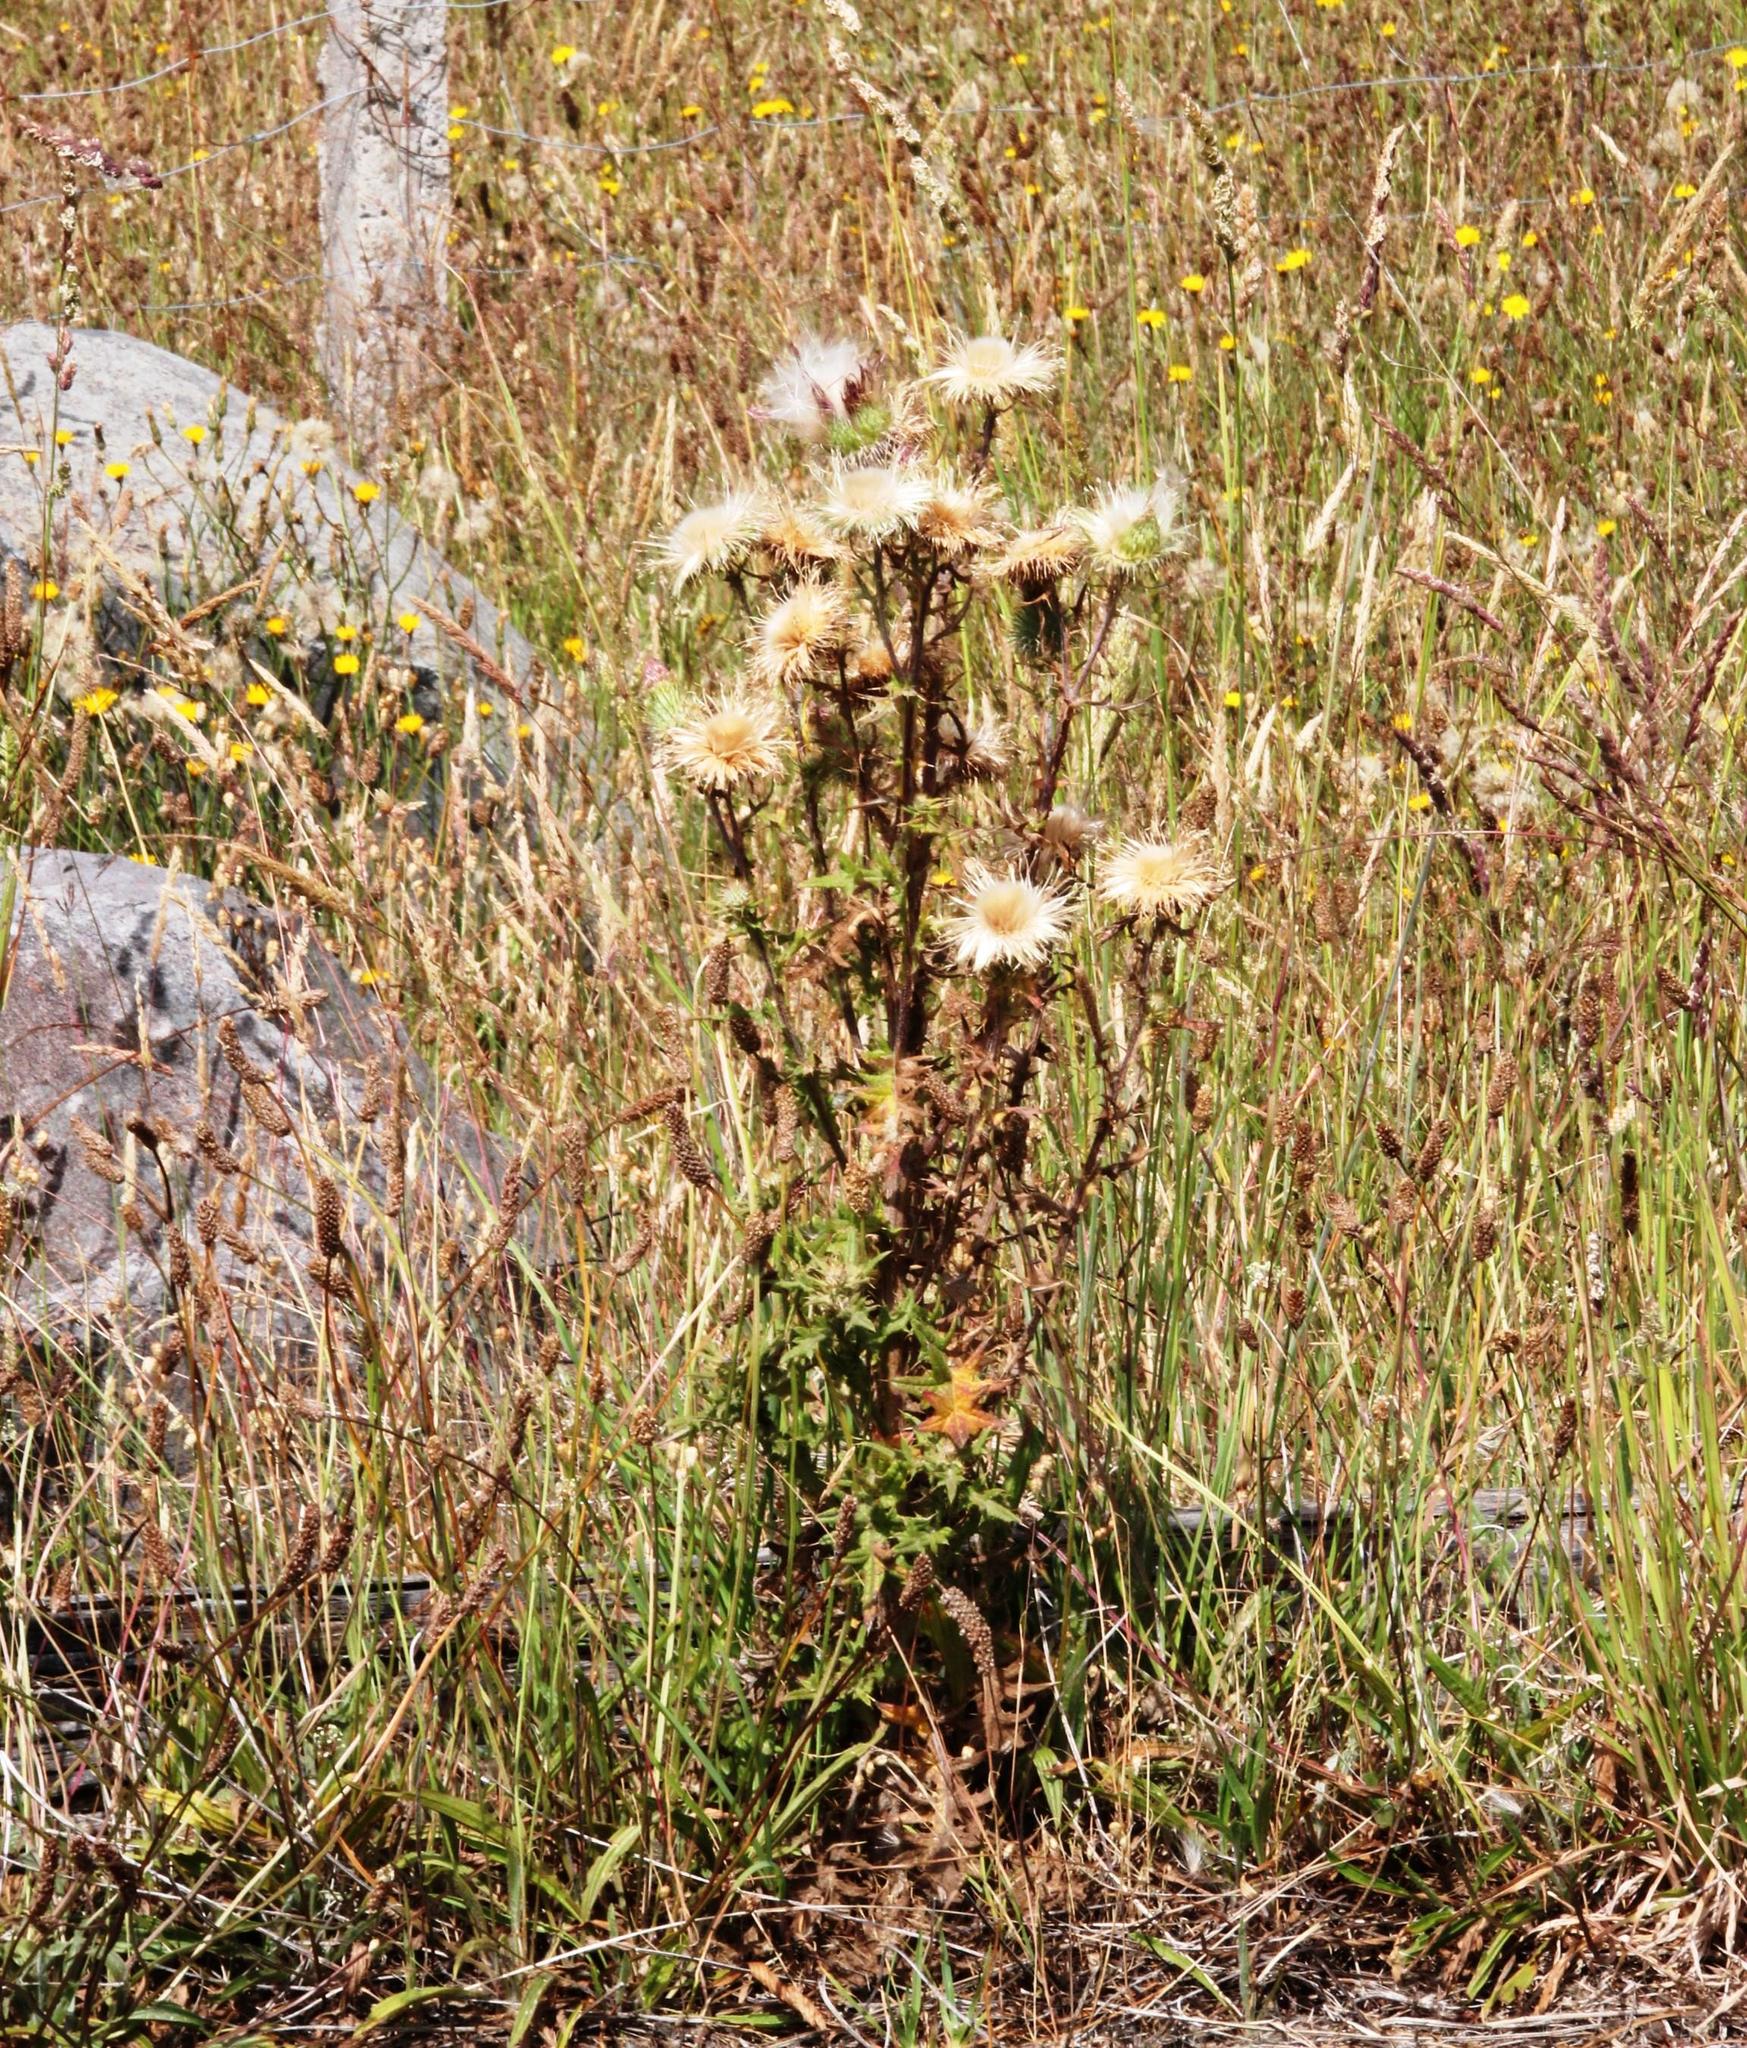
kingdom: Plantae
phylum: Tracheophyta
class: Magnoliopsida
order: Asterales
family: Asteraceae
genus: Cirsium
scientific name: Cirsium vulgare
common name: Bull thistle
